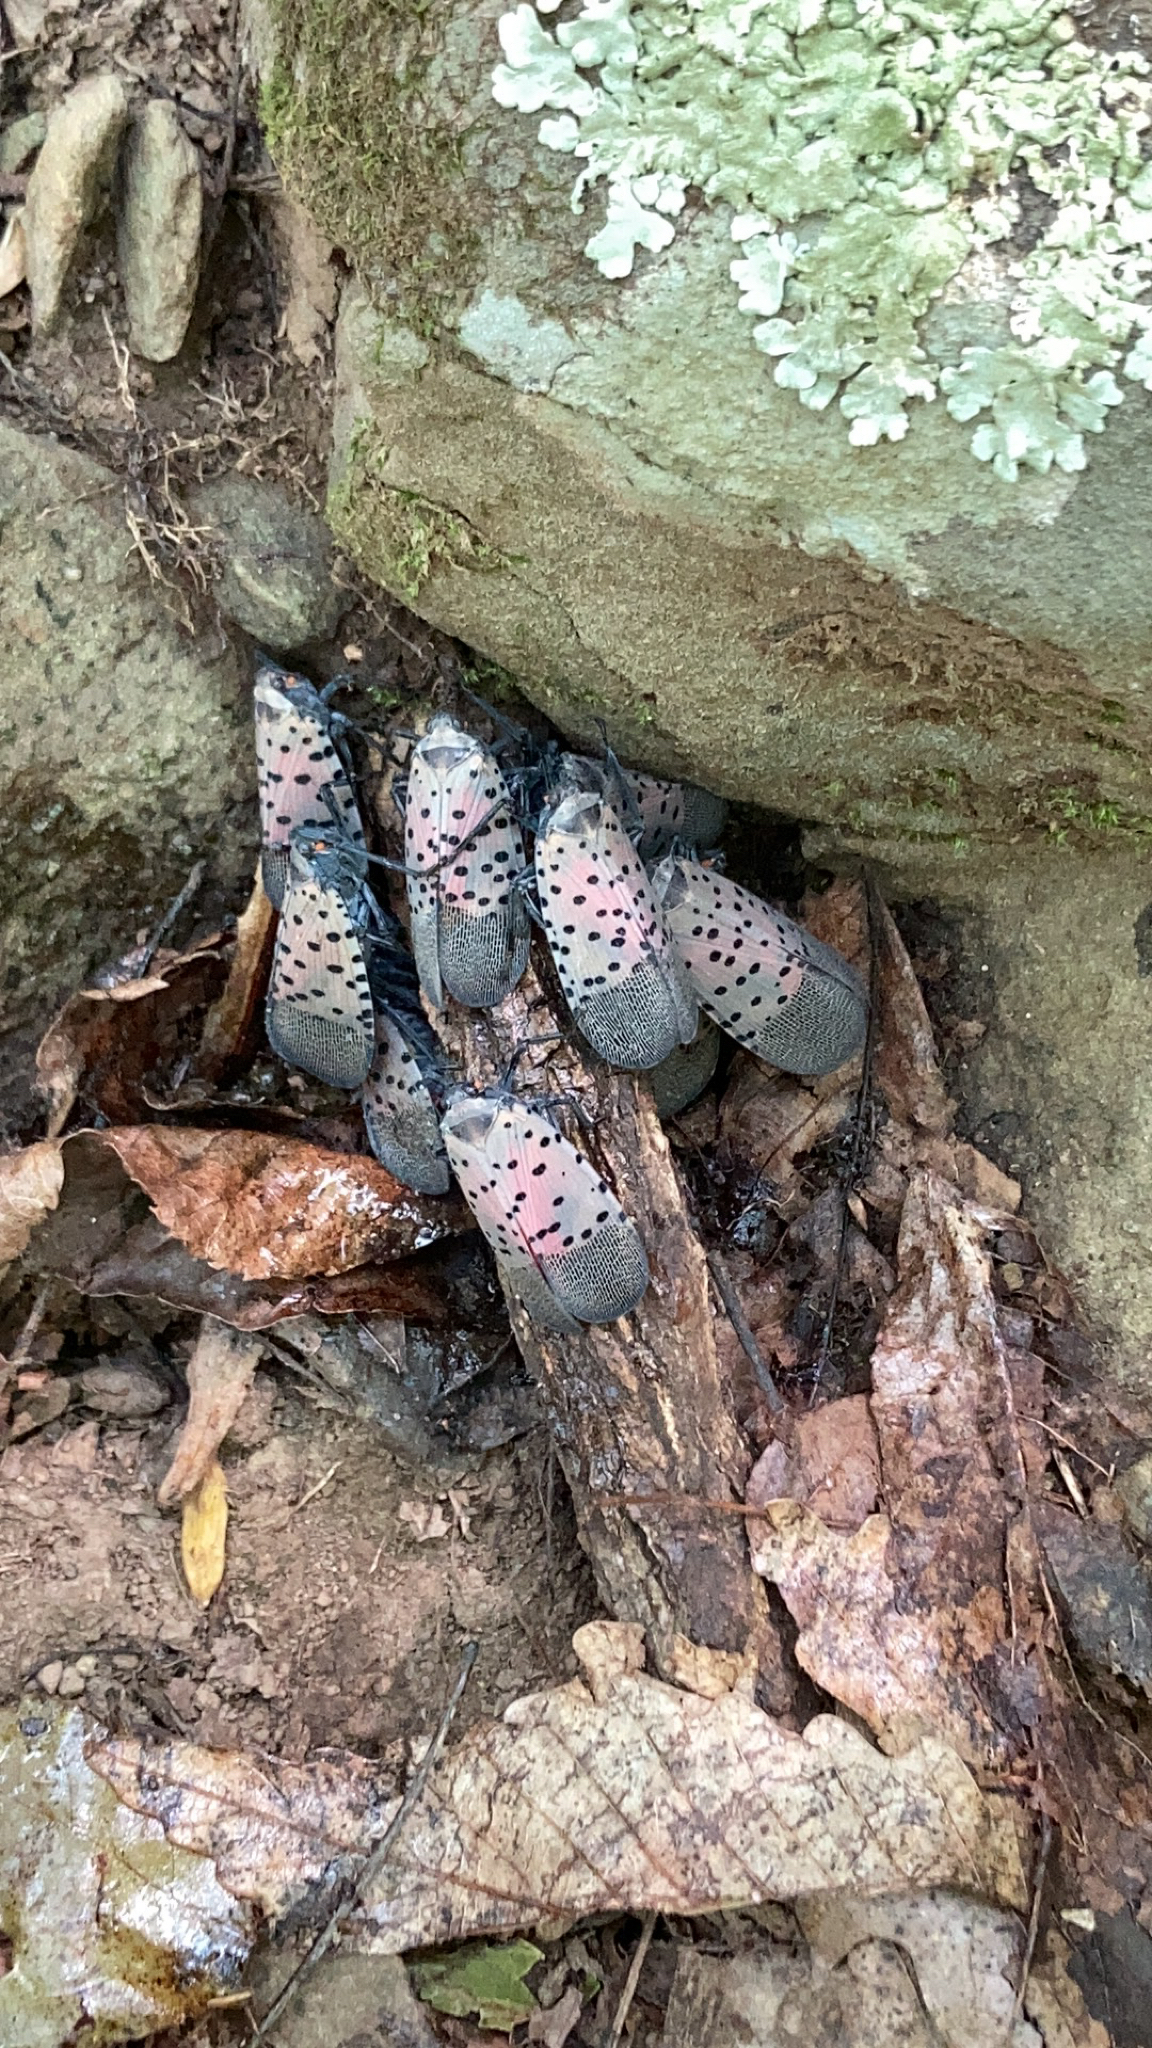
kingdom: Animalia
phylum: Arthropoda
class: Insecta
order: Hemiptera
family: Fulgoridae
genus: Lycorma
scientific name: Lycorma delicatula
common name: Spotted lanternfly
